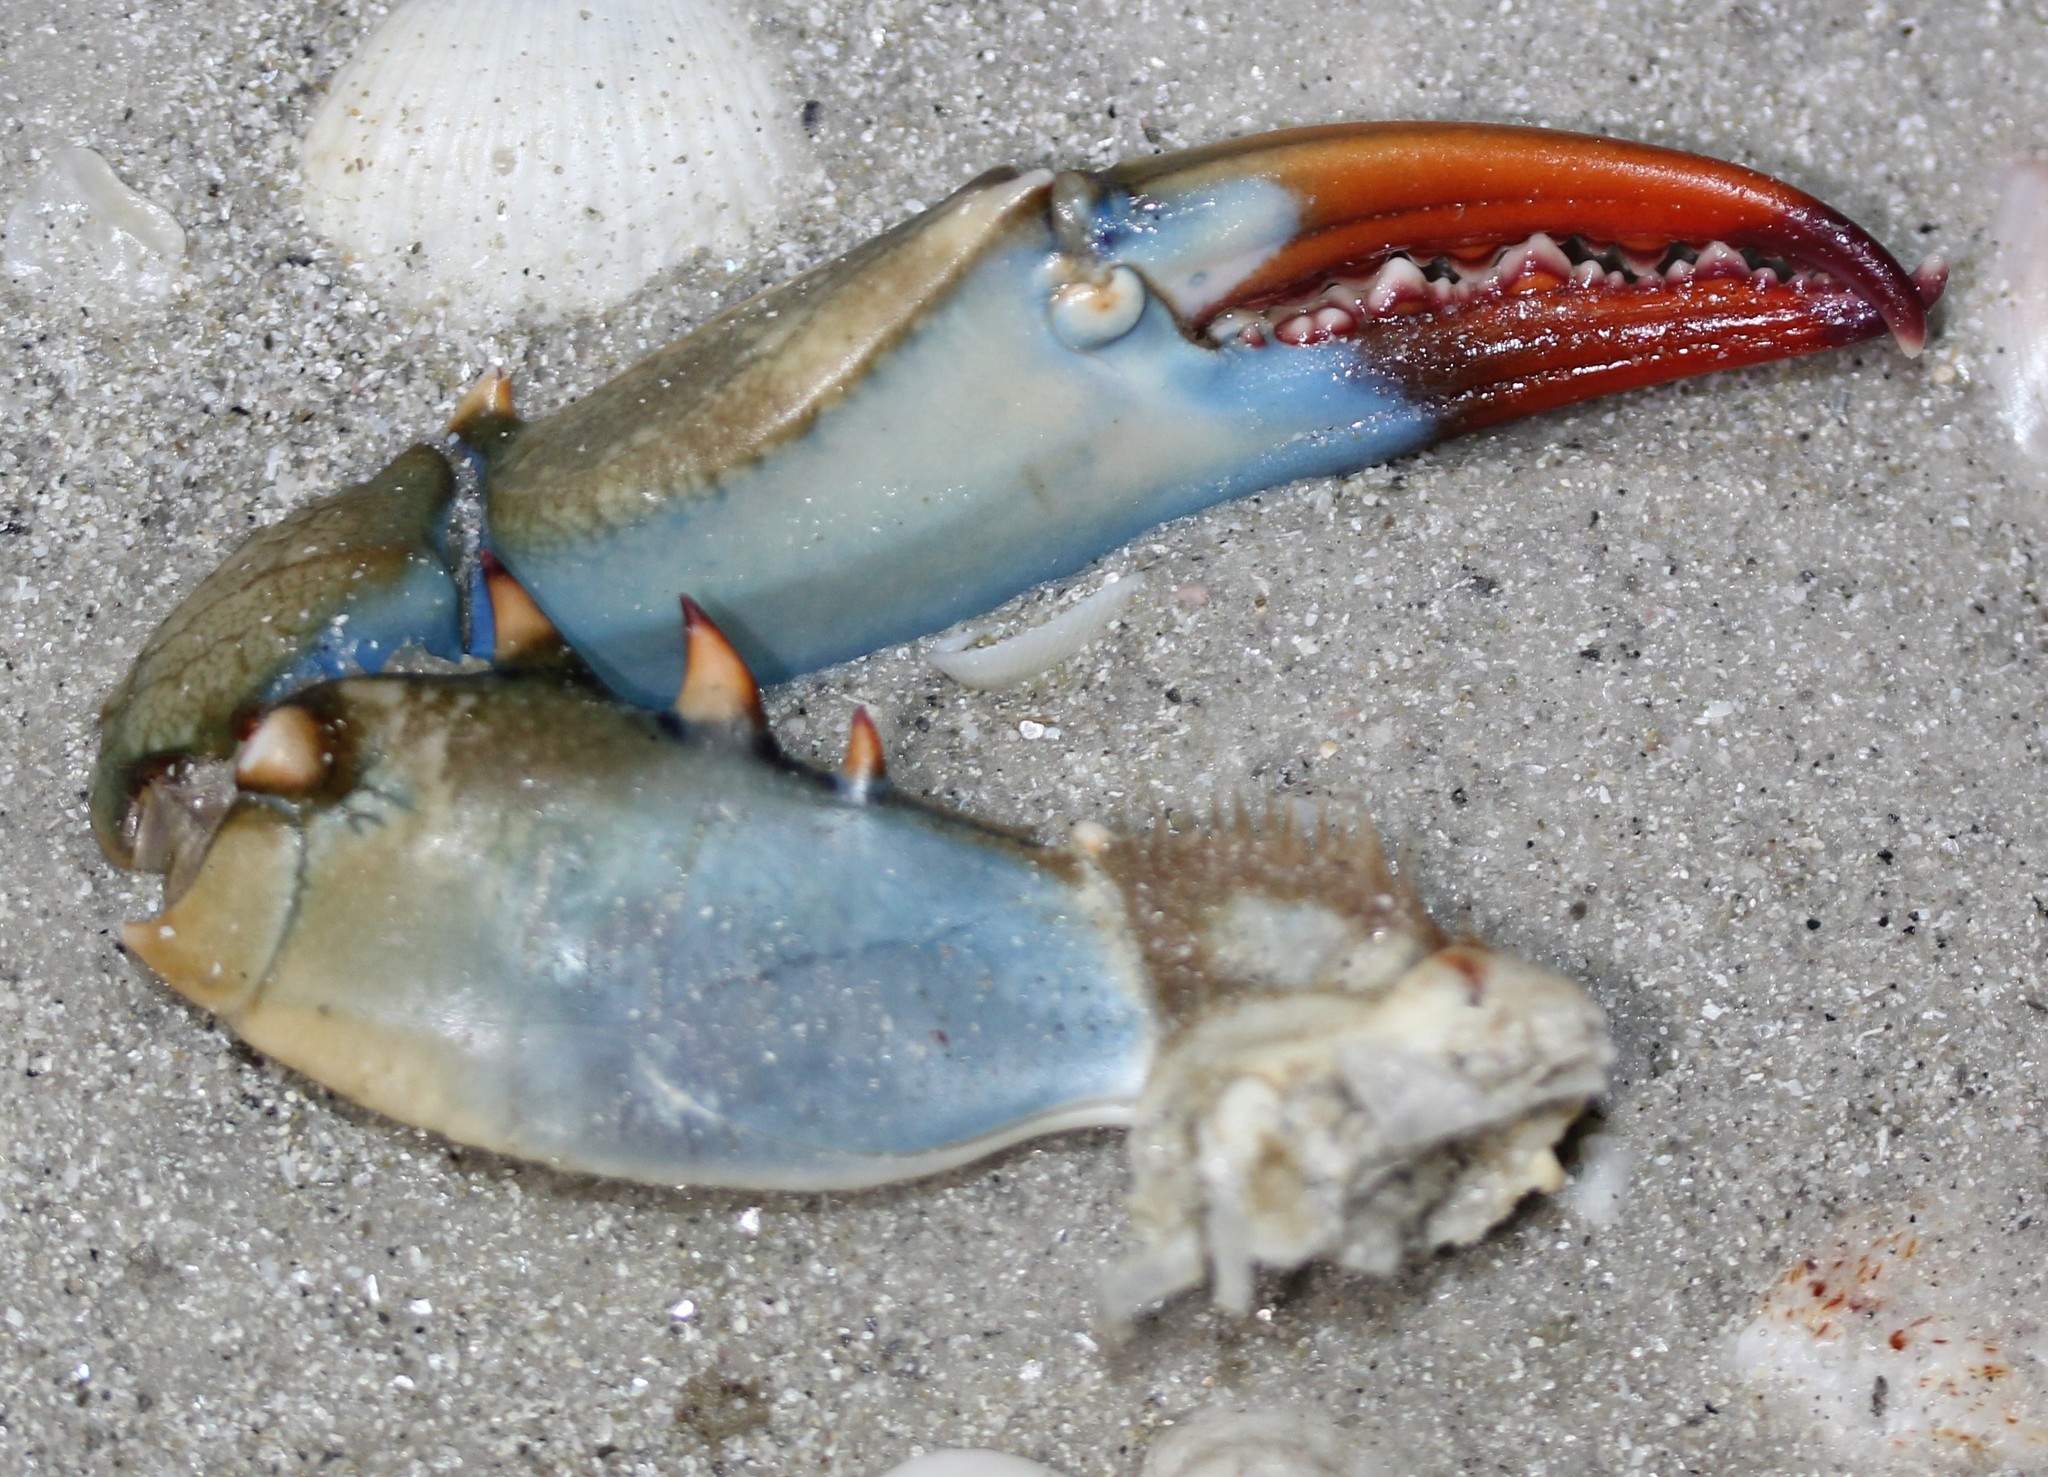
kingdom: Animalia
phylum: Arthropoda
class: Malacostraca
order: Decapoda
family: Portunidae
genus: Callinectes
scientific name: Callinectes sapidus
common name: Blue crab
